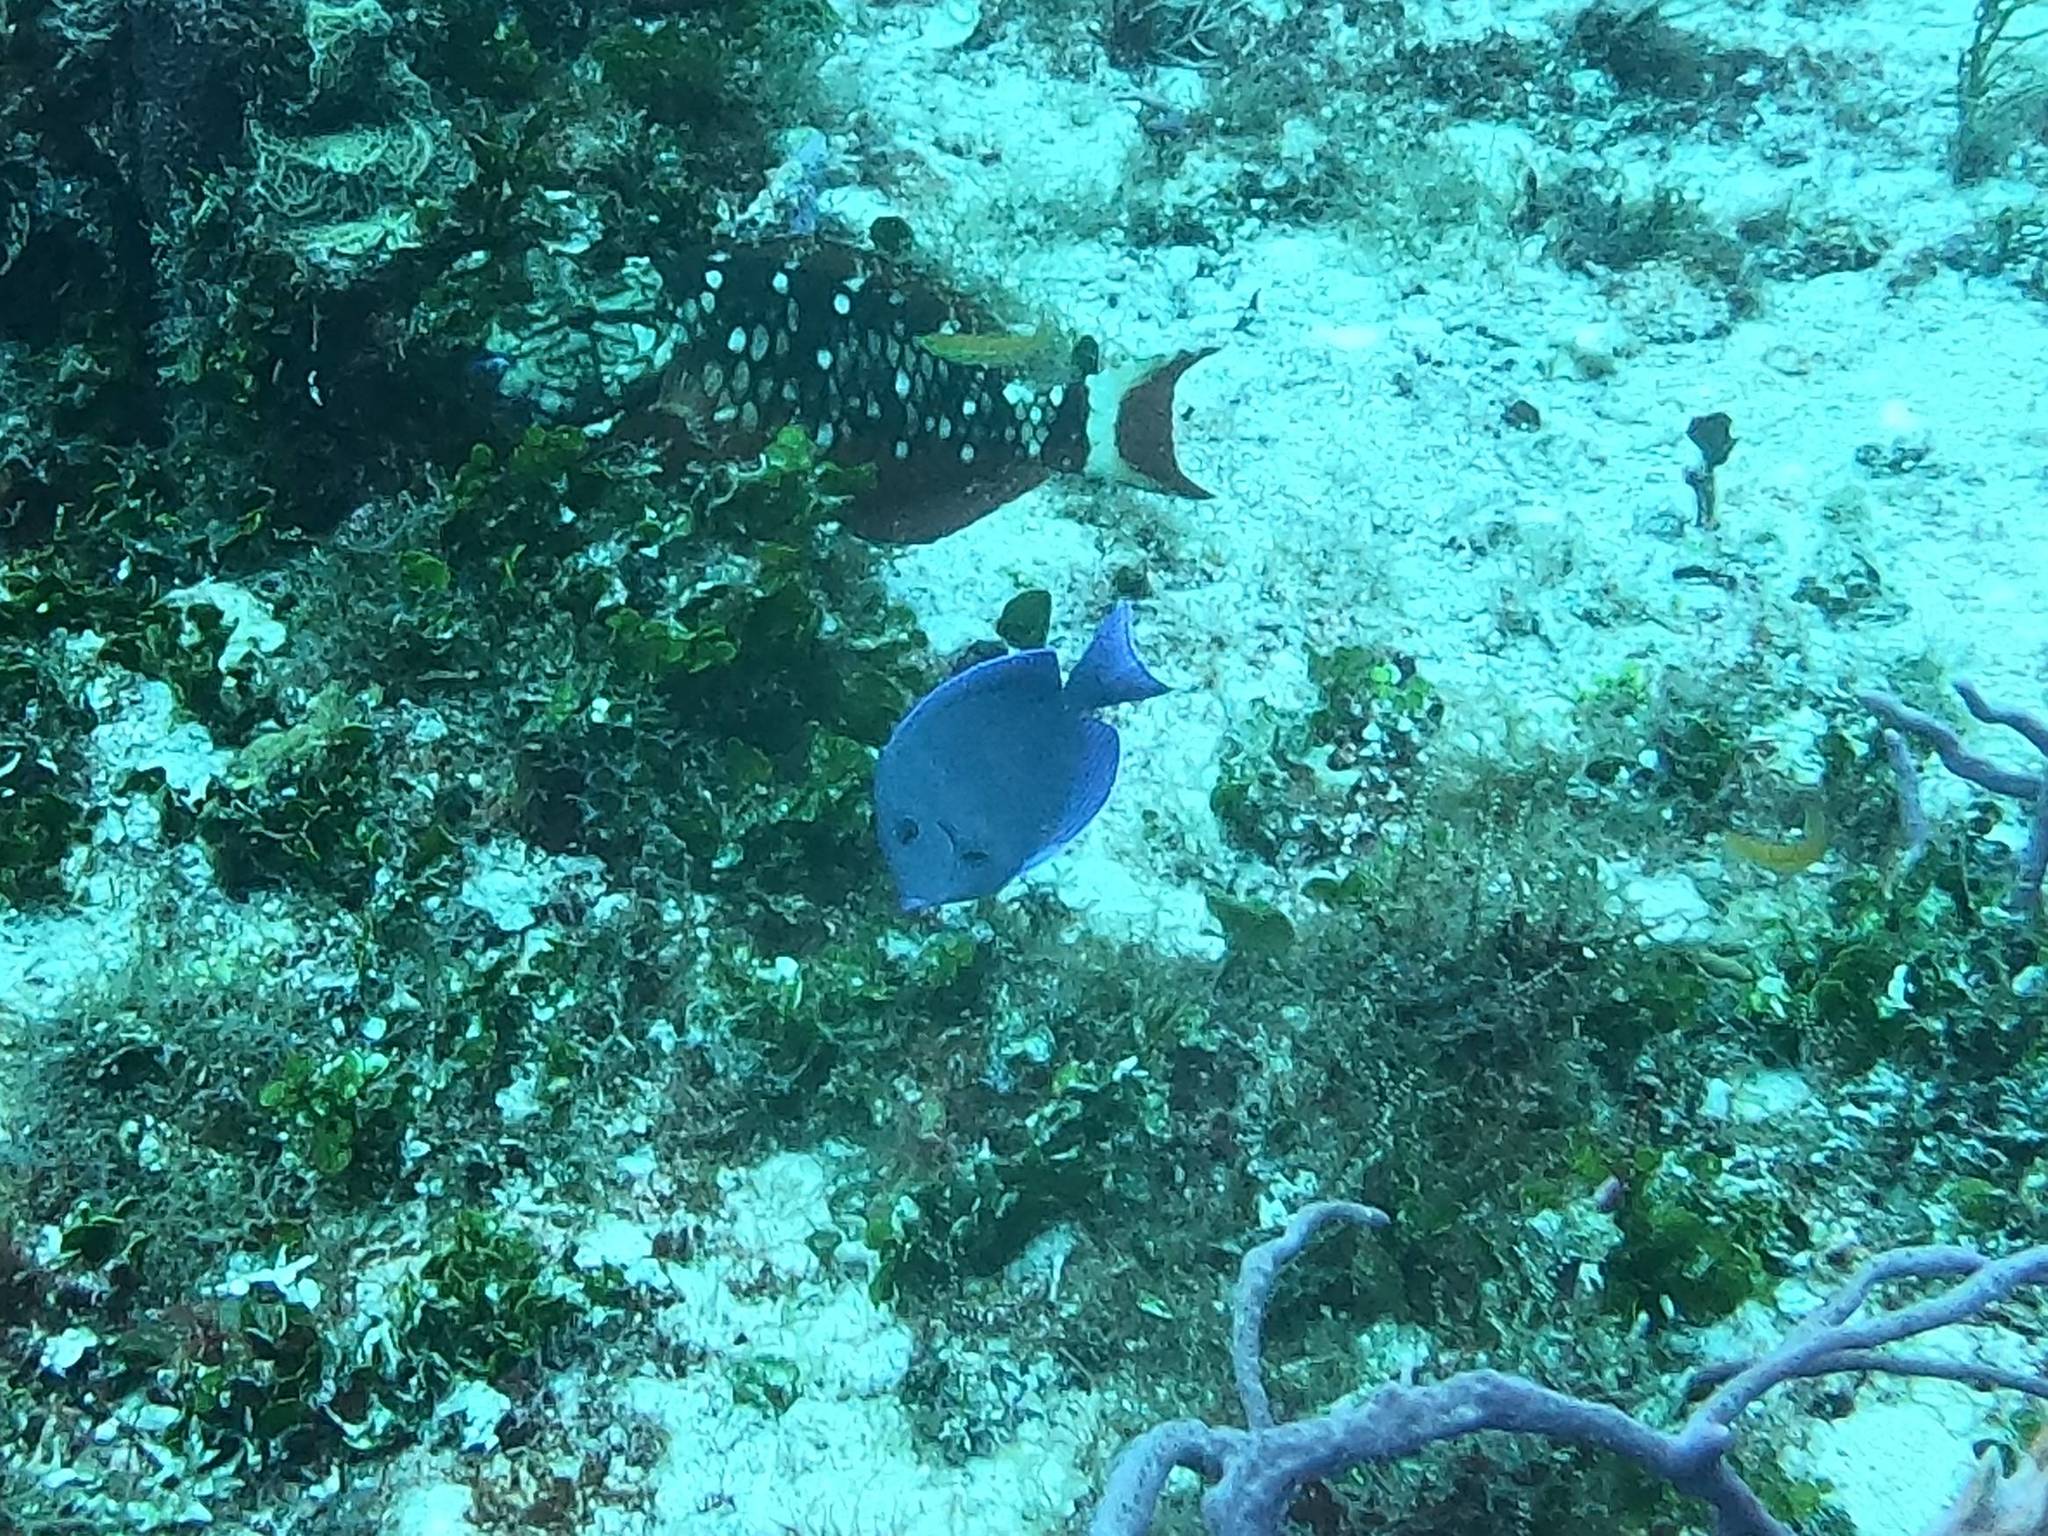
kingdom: Animalia
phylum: Chordata
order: Perciformes
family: Acanthuridae
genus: Acanthurus
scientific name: Acanthurus coeruleus
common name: Blue tang
